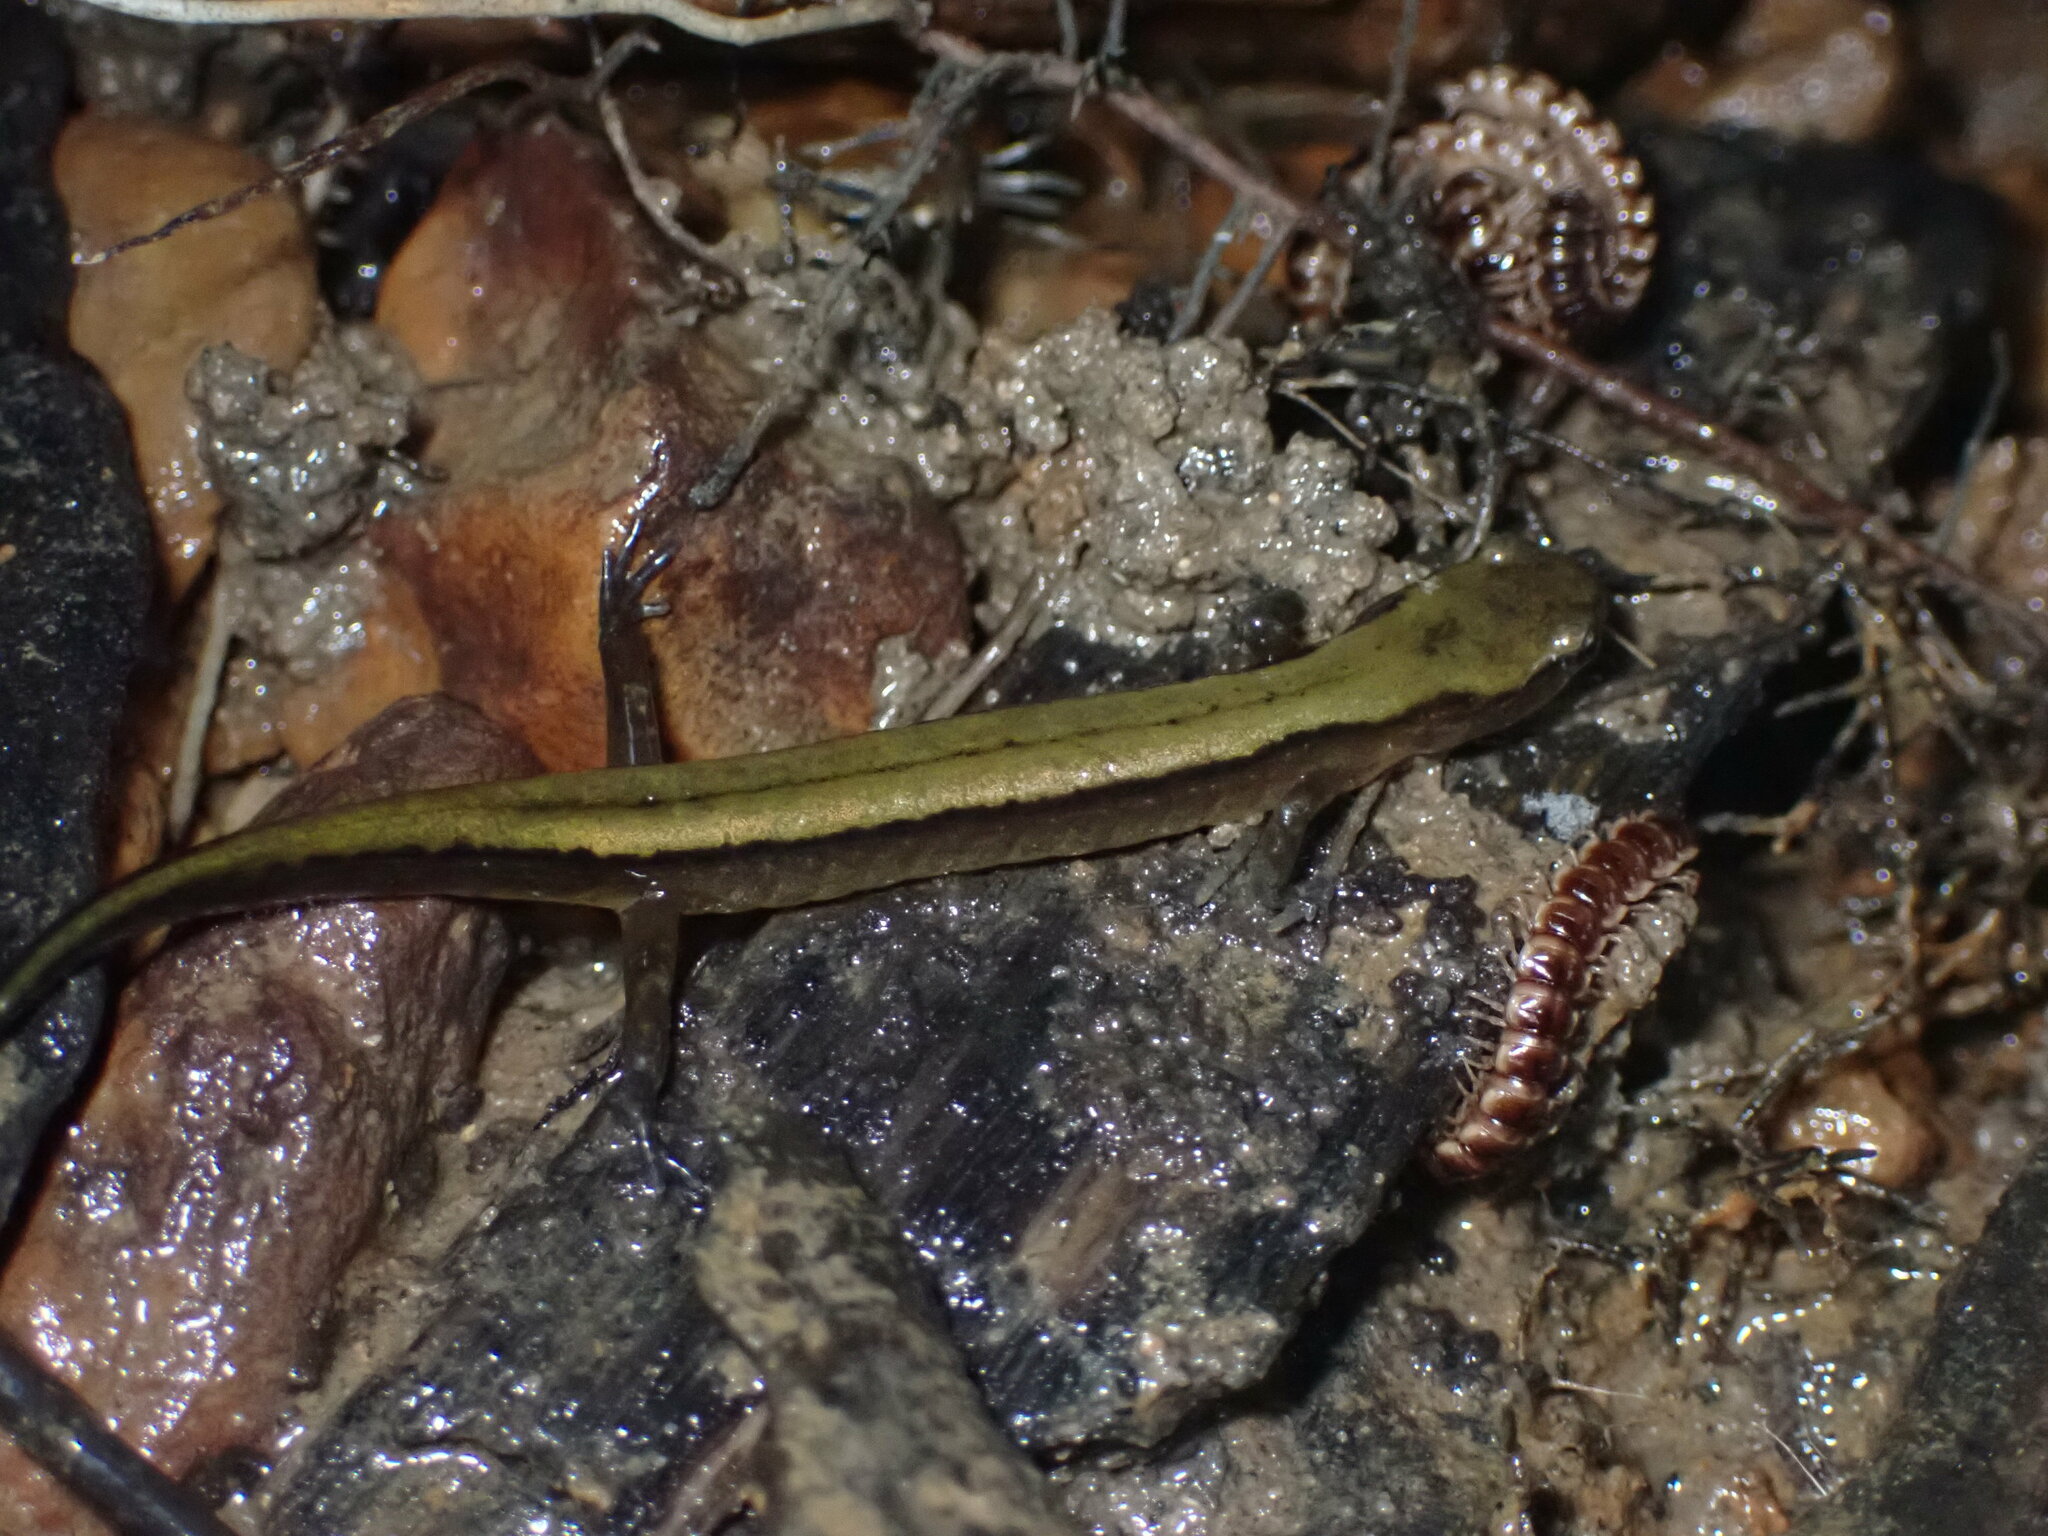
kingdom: Animalia
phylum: Chordata
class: Amphibia
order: Caudata
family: Plethodontidae
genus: Eurycea
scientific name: Eurycea aquatica
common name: Brown-backed salamander
